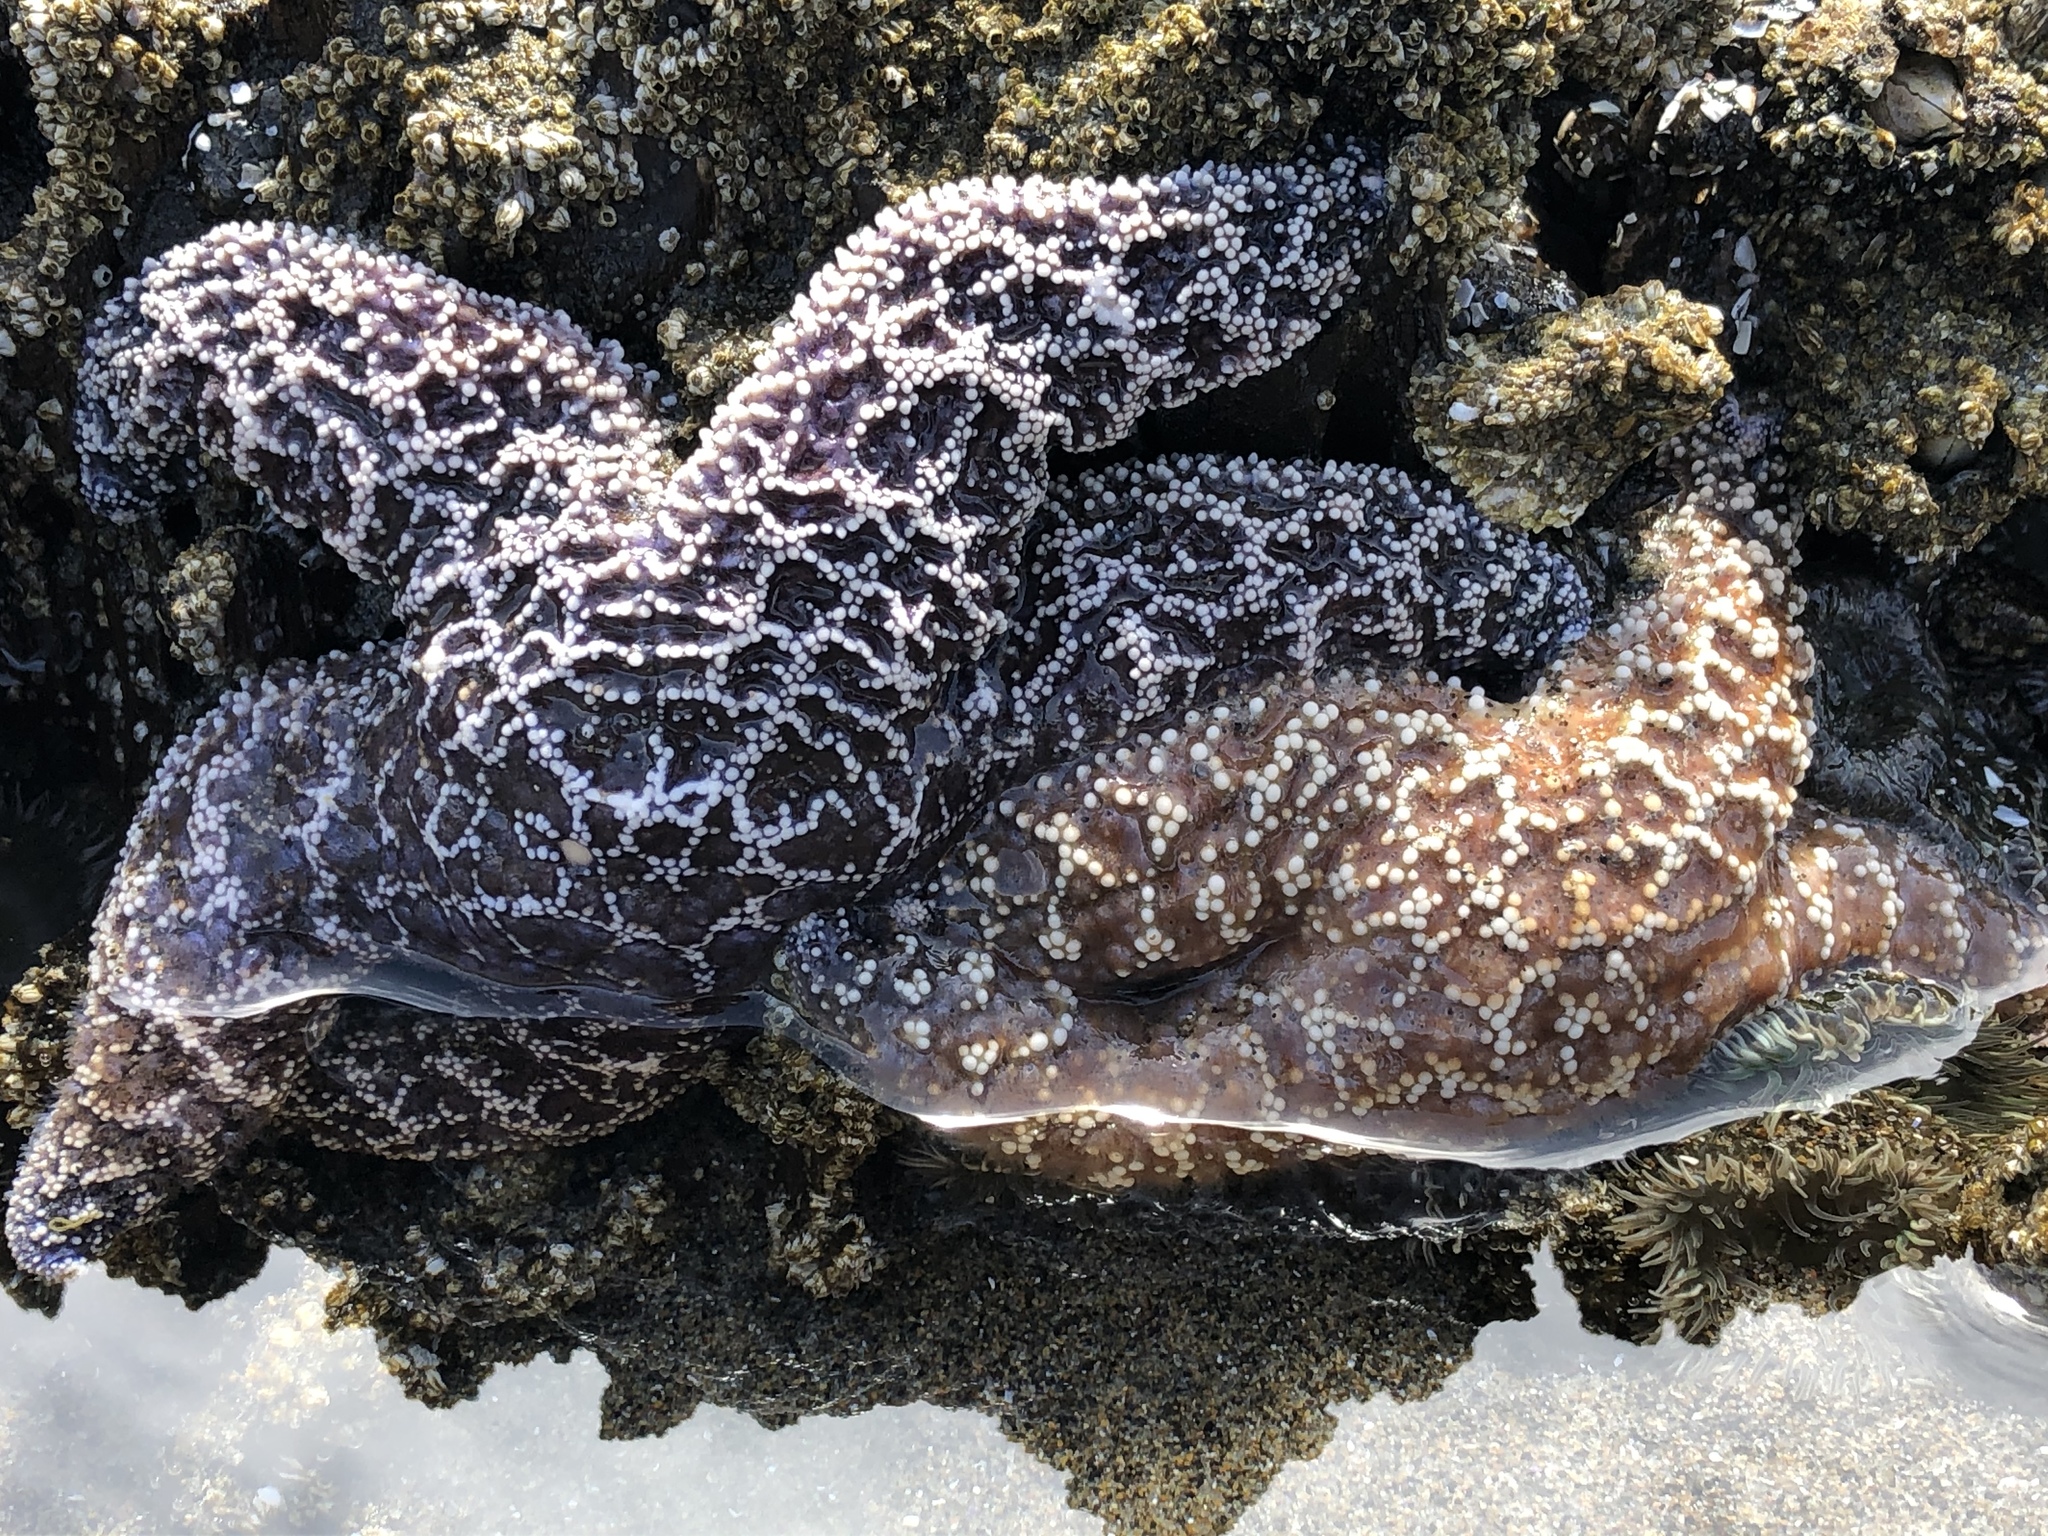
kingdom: Animalia
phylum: Echinodermata
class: Asteroidea
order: Forcipulatida
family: Asteriidae
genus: Pisaster
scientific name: Pisaster ochraceus
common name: Ochre stars
